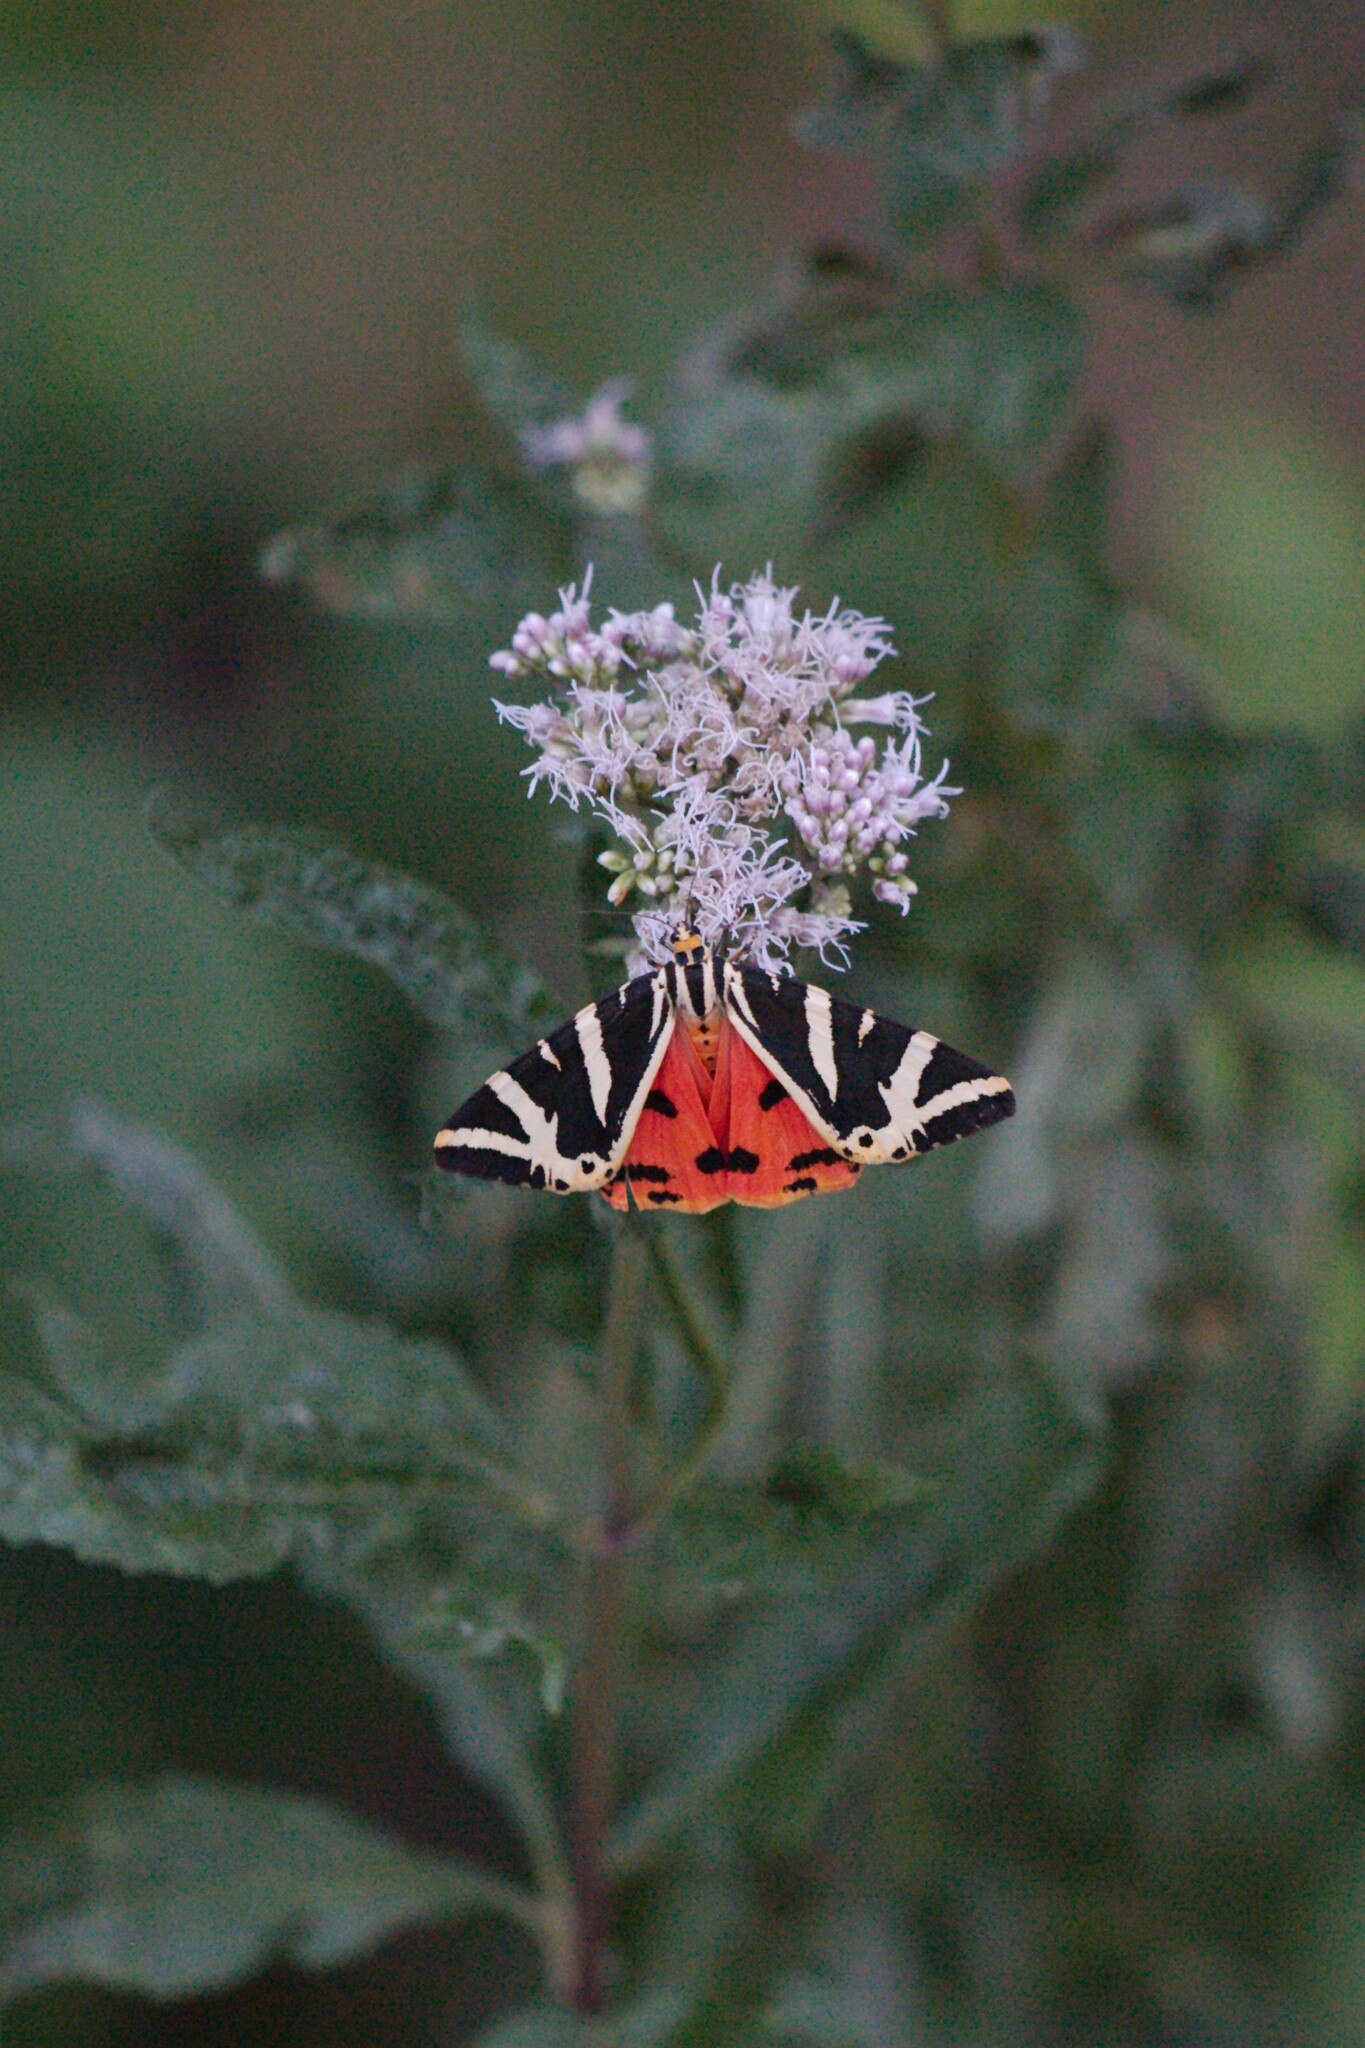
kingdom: Animalia
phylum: Arthropoda
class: Insecta
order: Lepidoptera
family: Erebidae
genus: Euplagia
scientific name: Euplagia quadripunctaria
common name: Jersey tiger
